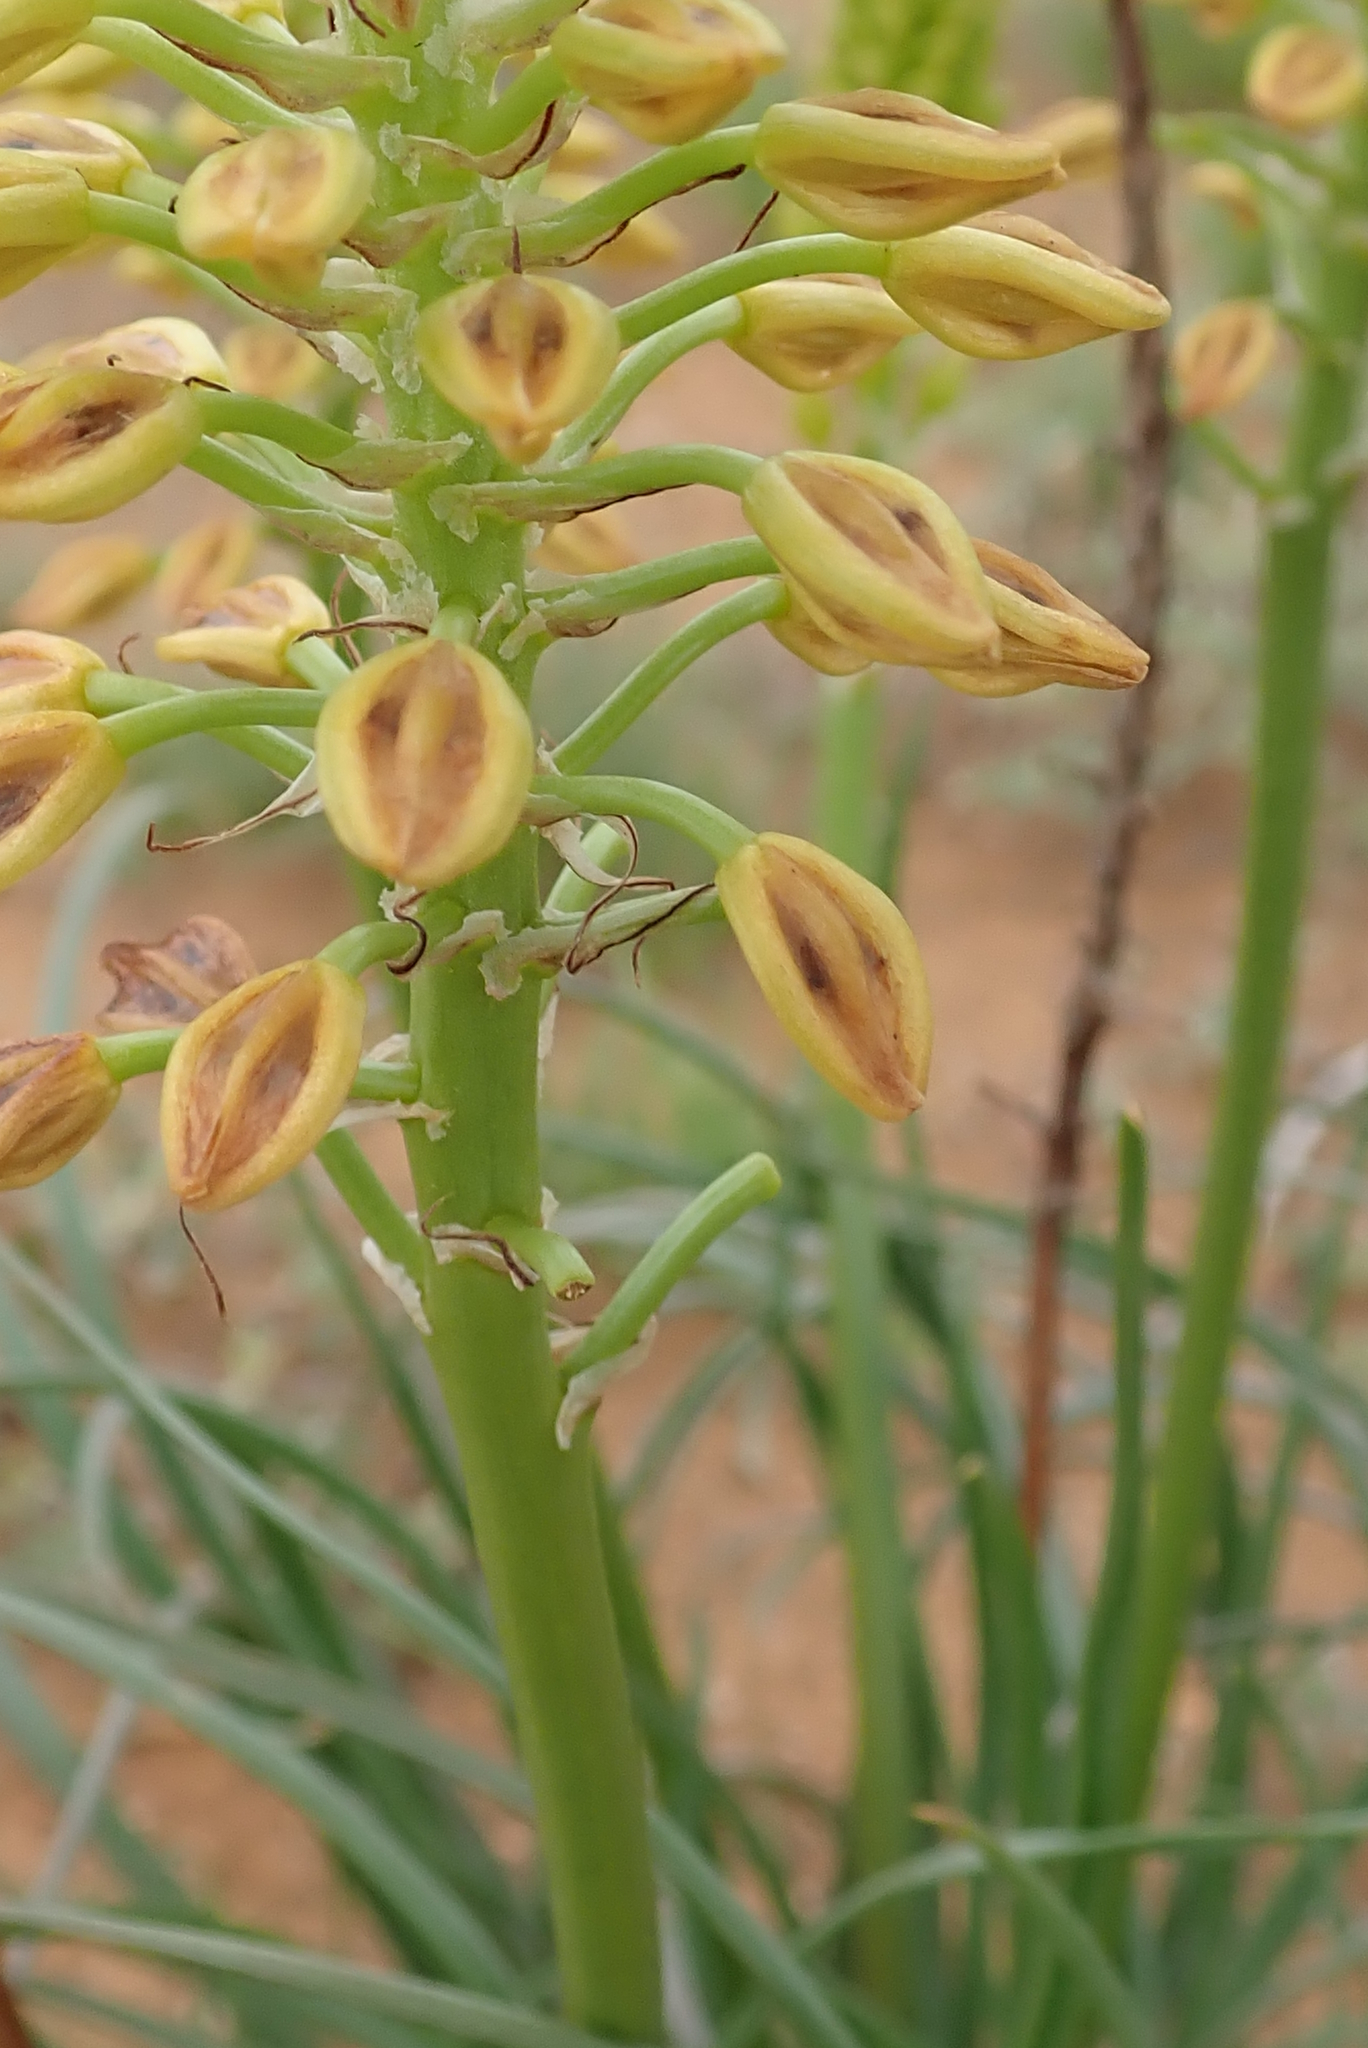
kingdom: Plantae
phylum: Tracheophyta
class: Liliopsida
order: Asparagales
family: Asphodelaceae
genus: Bulbine
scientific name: Bulbine abyssinica
